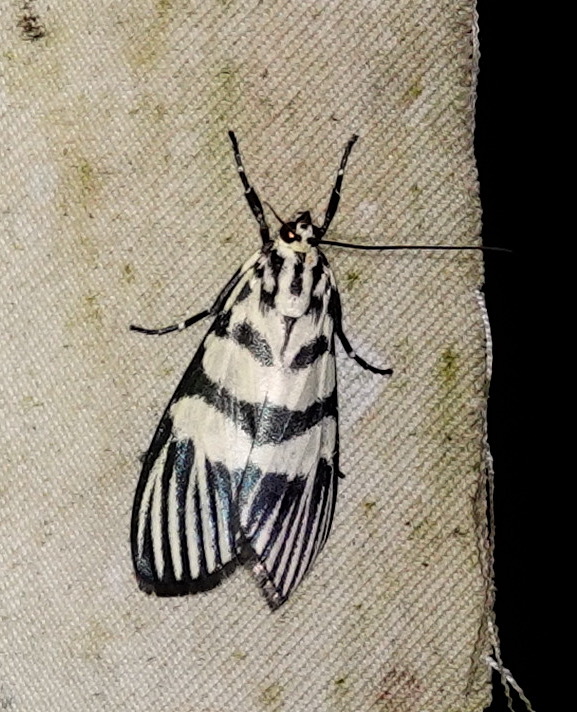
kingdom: Animalia
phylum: Arthropoda
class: Insecta
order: Lepidoptera
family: Crambidae
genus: Heortia
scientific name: Heortia vitessoides
